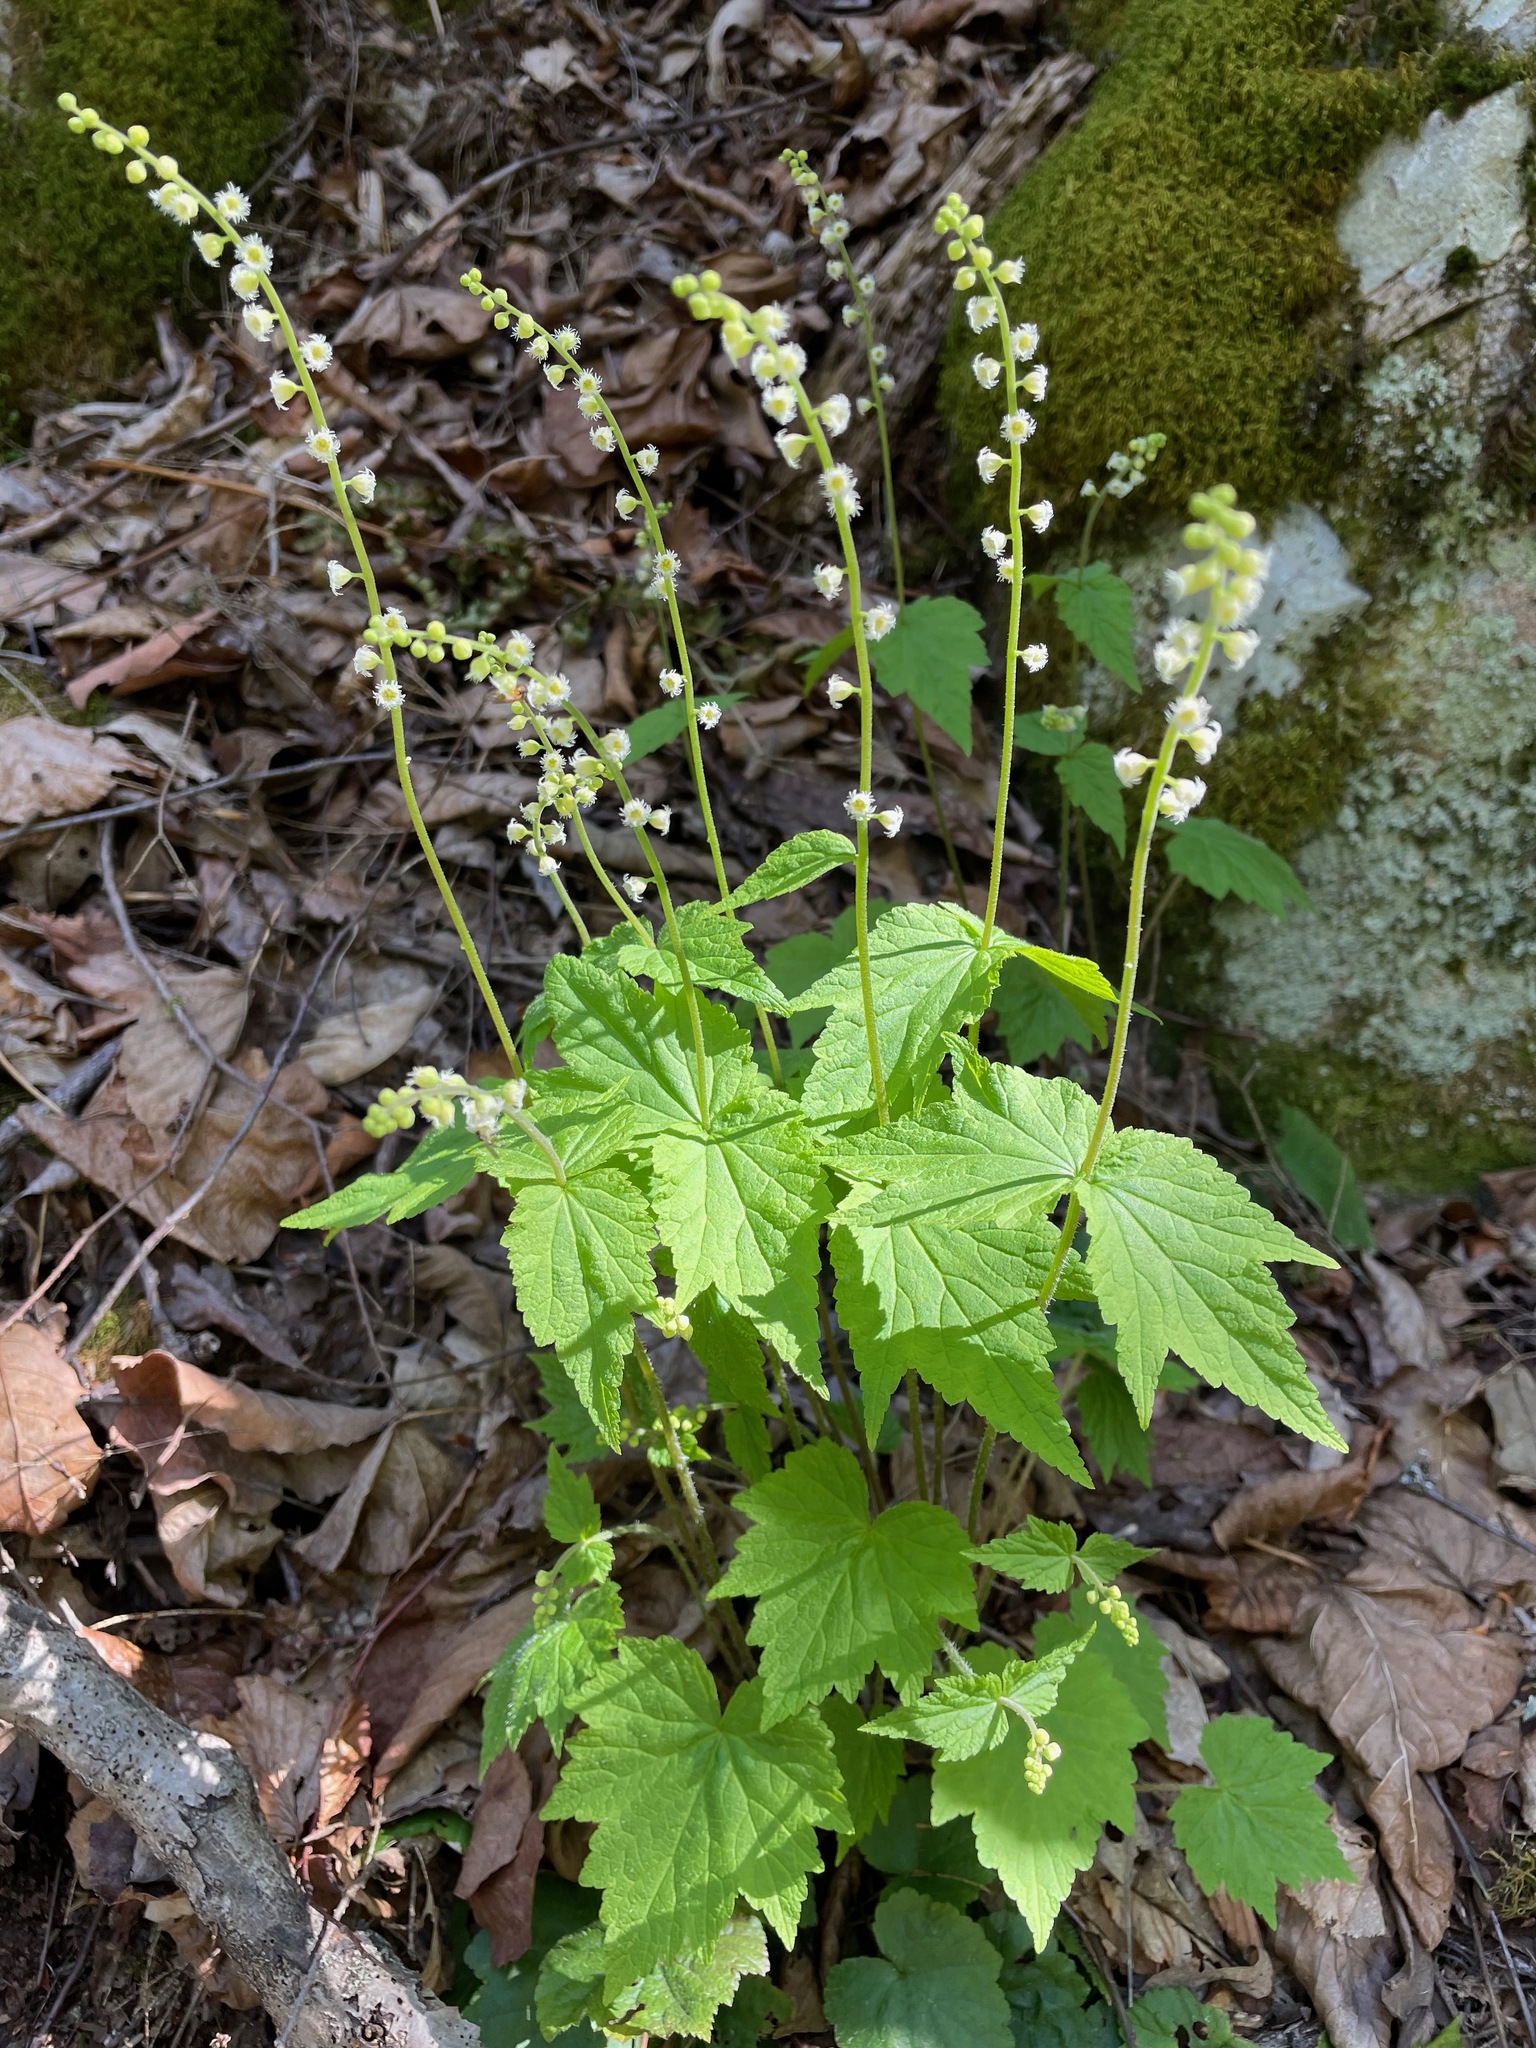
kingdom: Plantae
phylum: Tracheophyta
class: Magnoliopsida
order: Saxifragales
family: Saxifragaceae
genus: Mitella
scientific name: Mitella diphylla
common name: Coolwort
